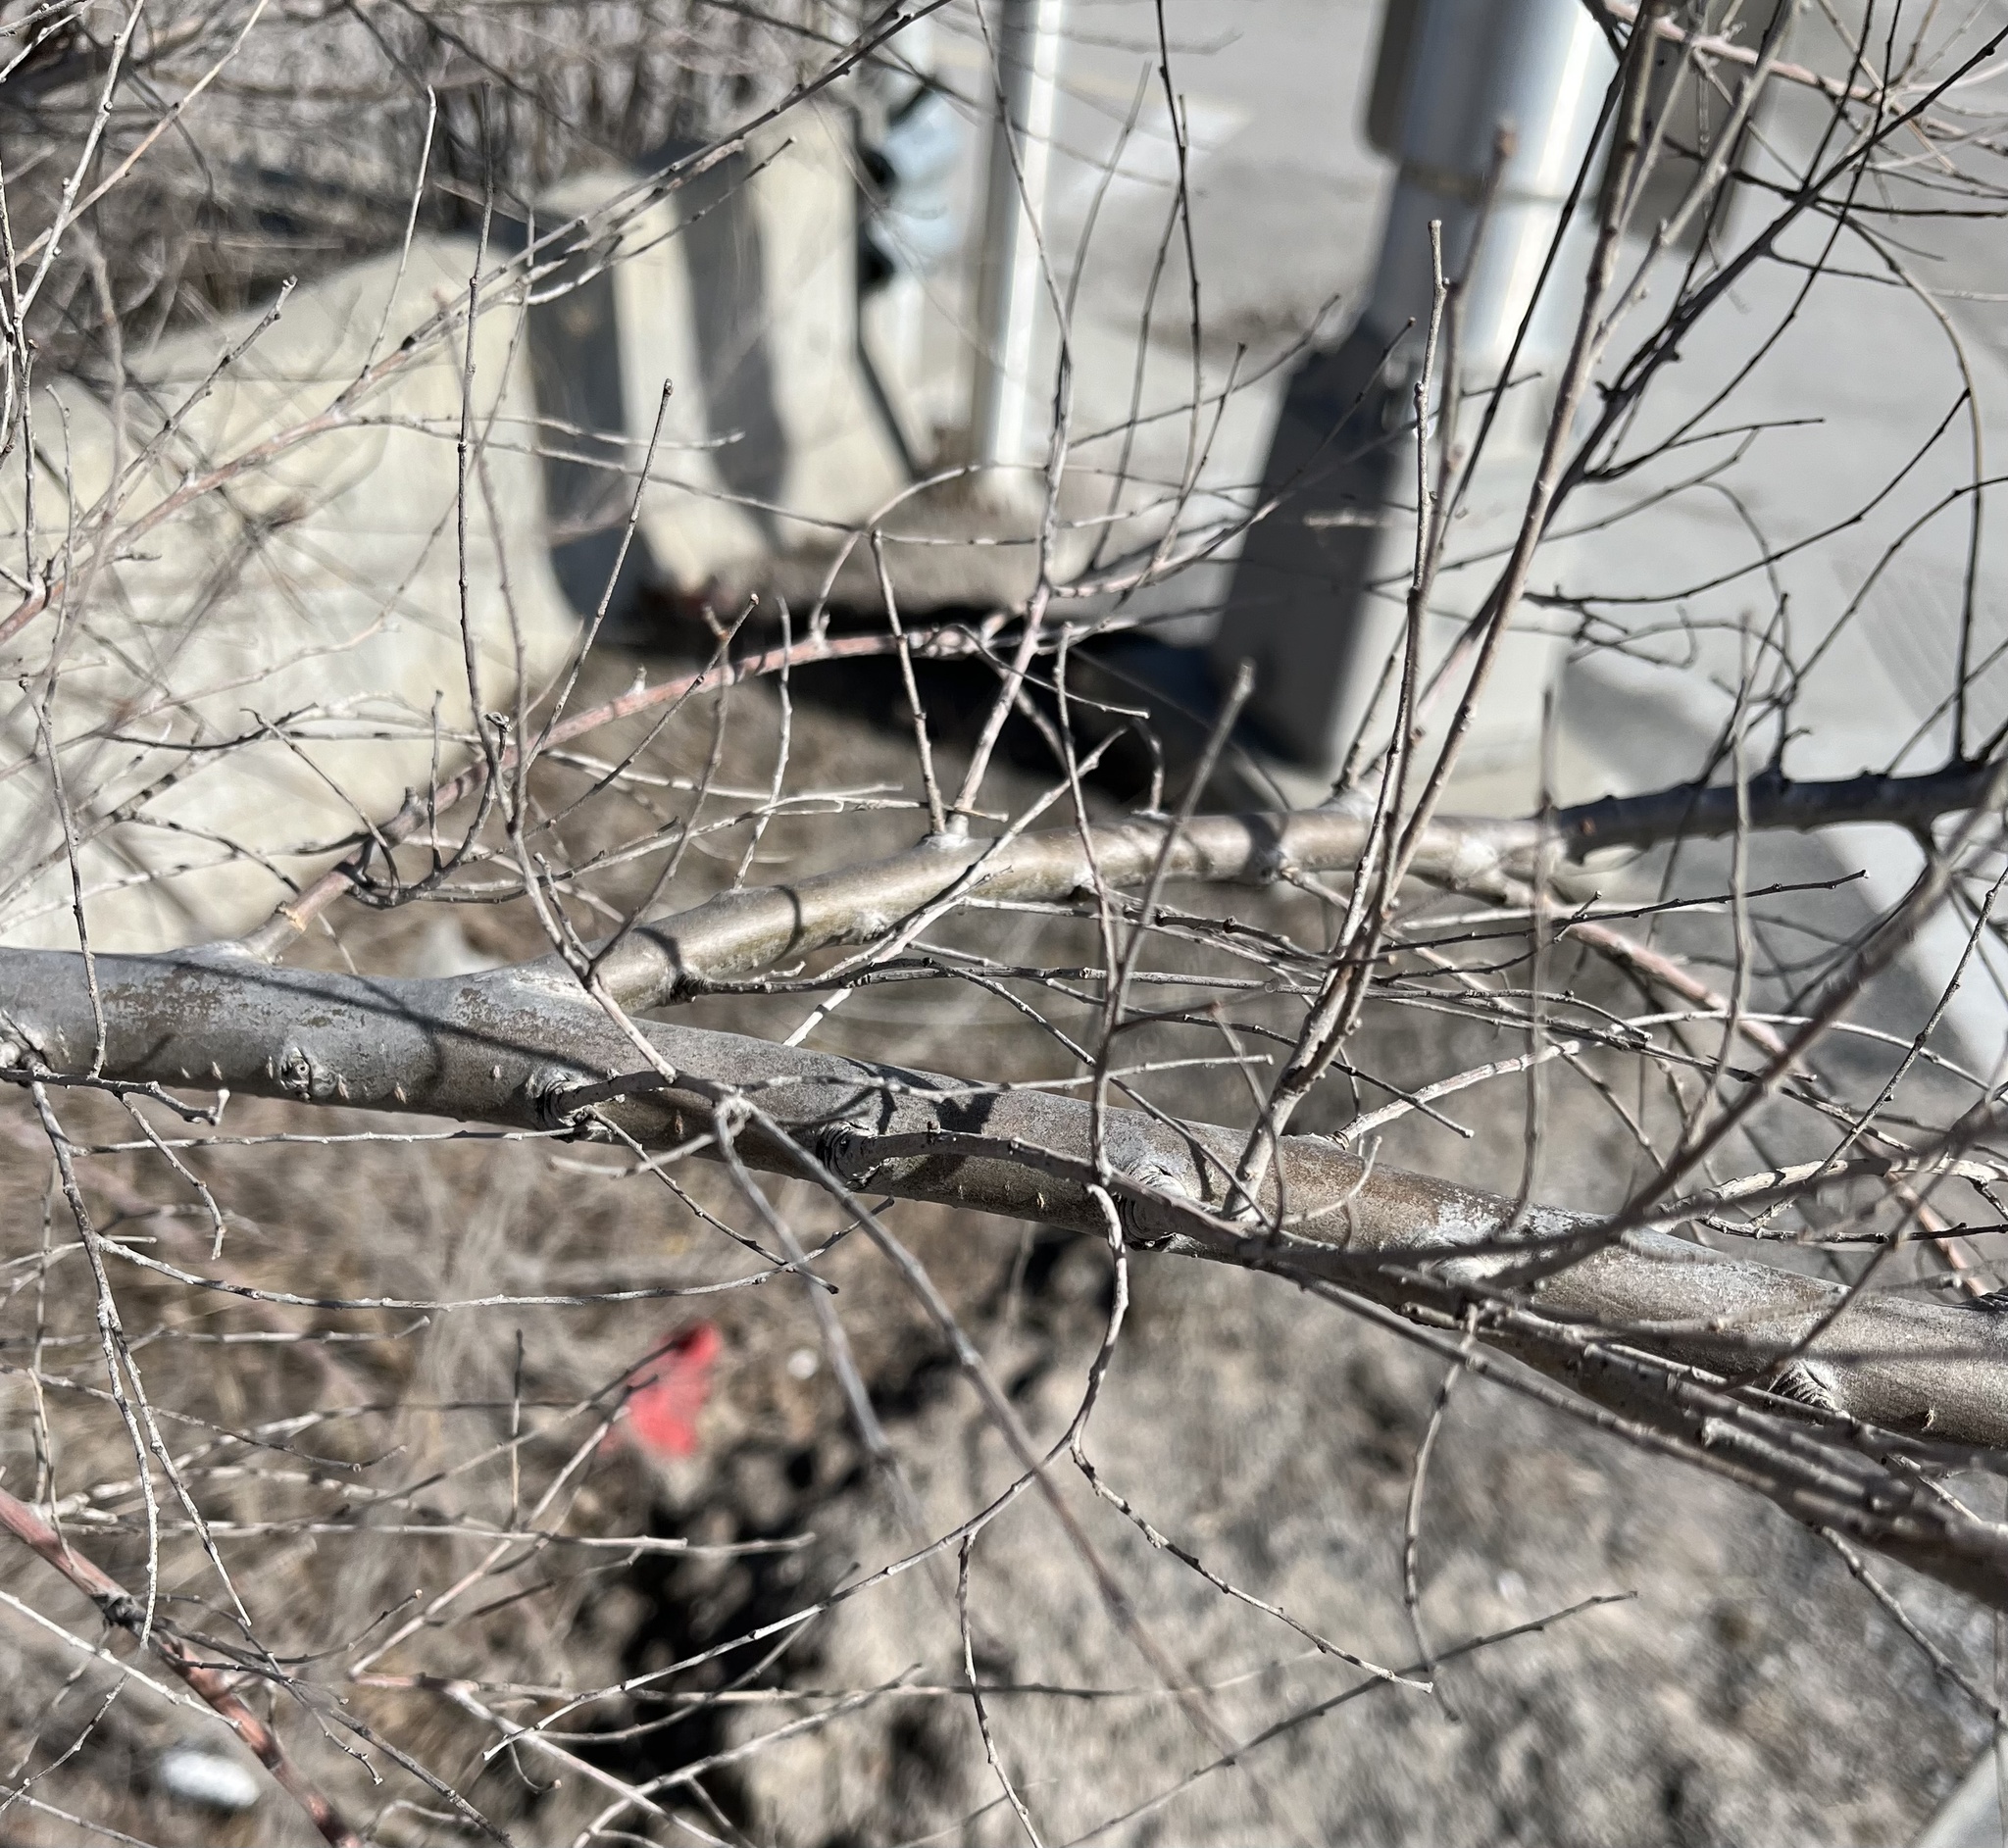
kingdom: Plantae
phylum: Tracheophyta
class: Magnoliopsida
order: Rosales
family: Ulmaceae
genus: Ulmus
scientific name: Ulmus pumila
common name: Siberian elm
